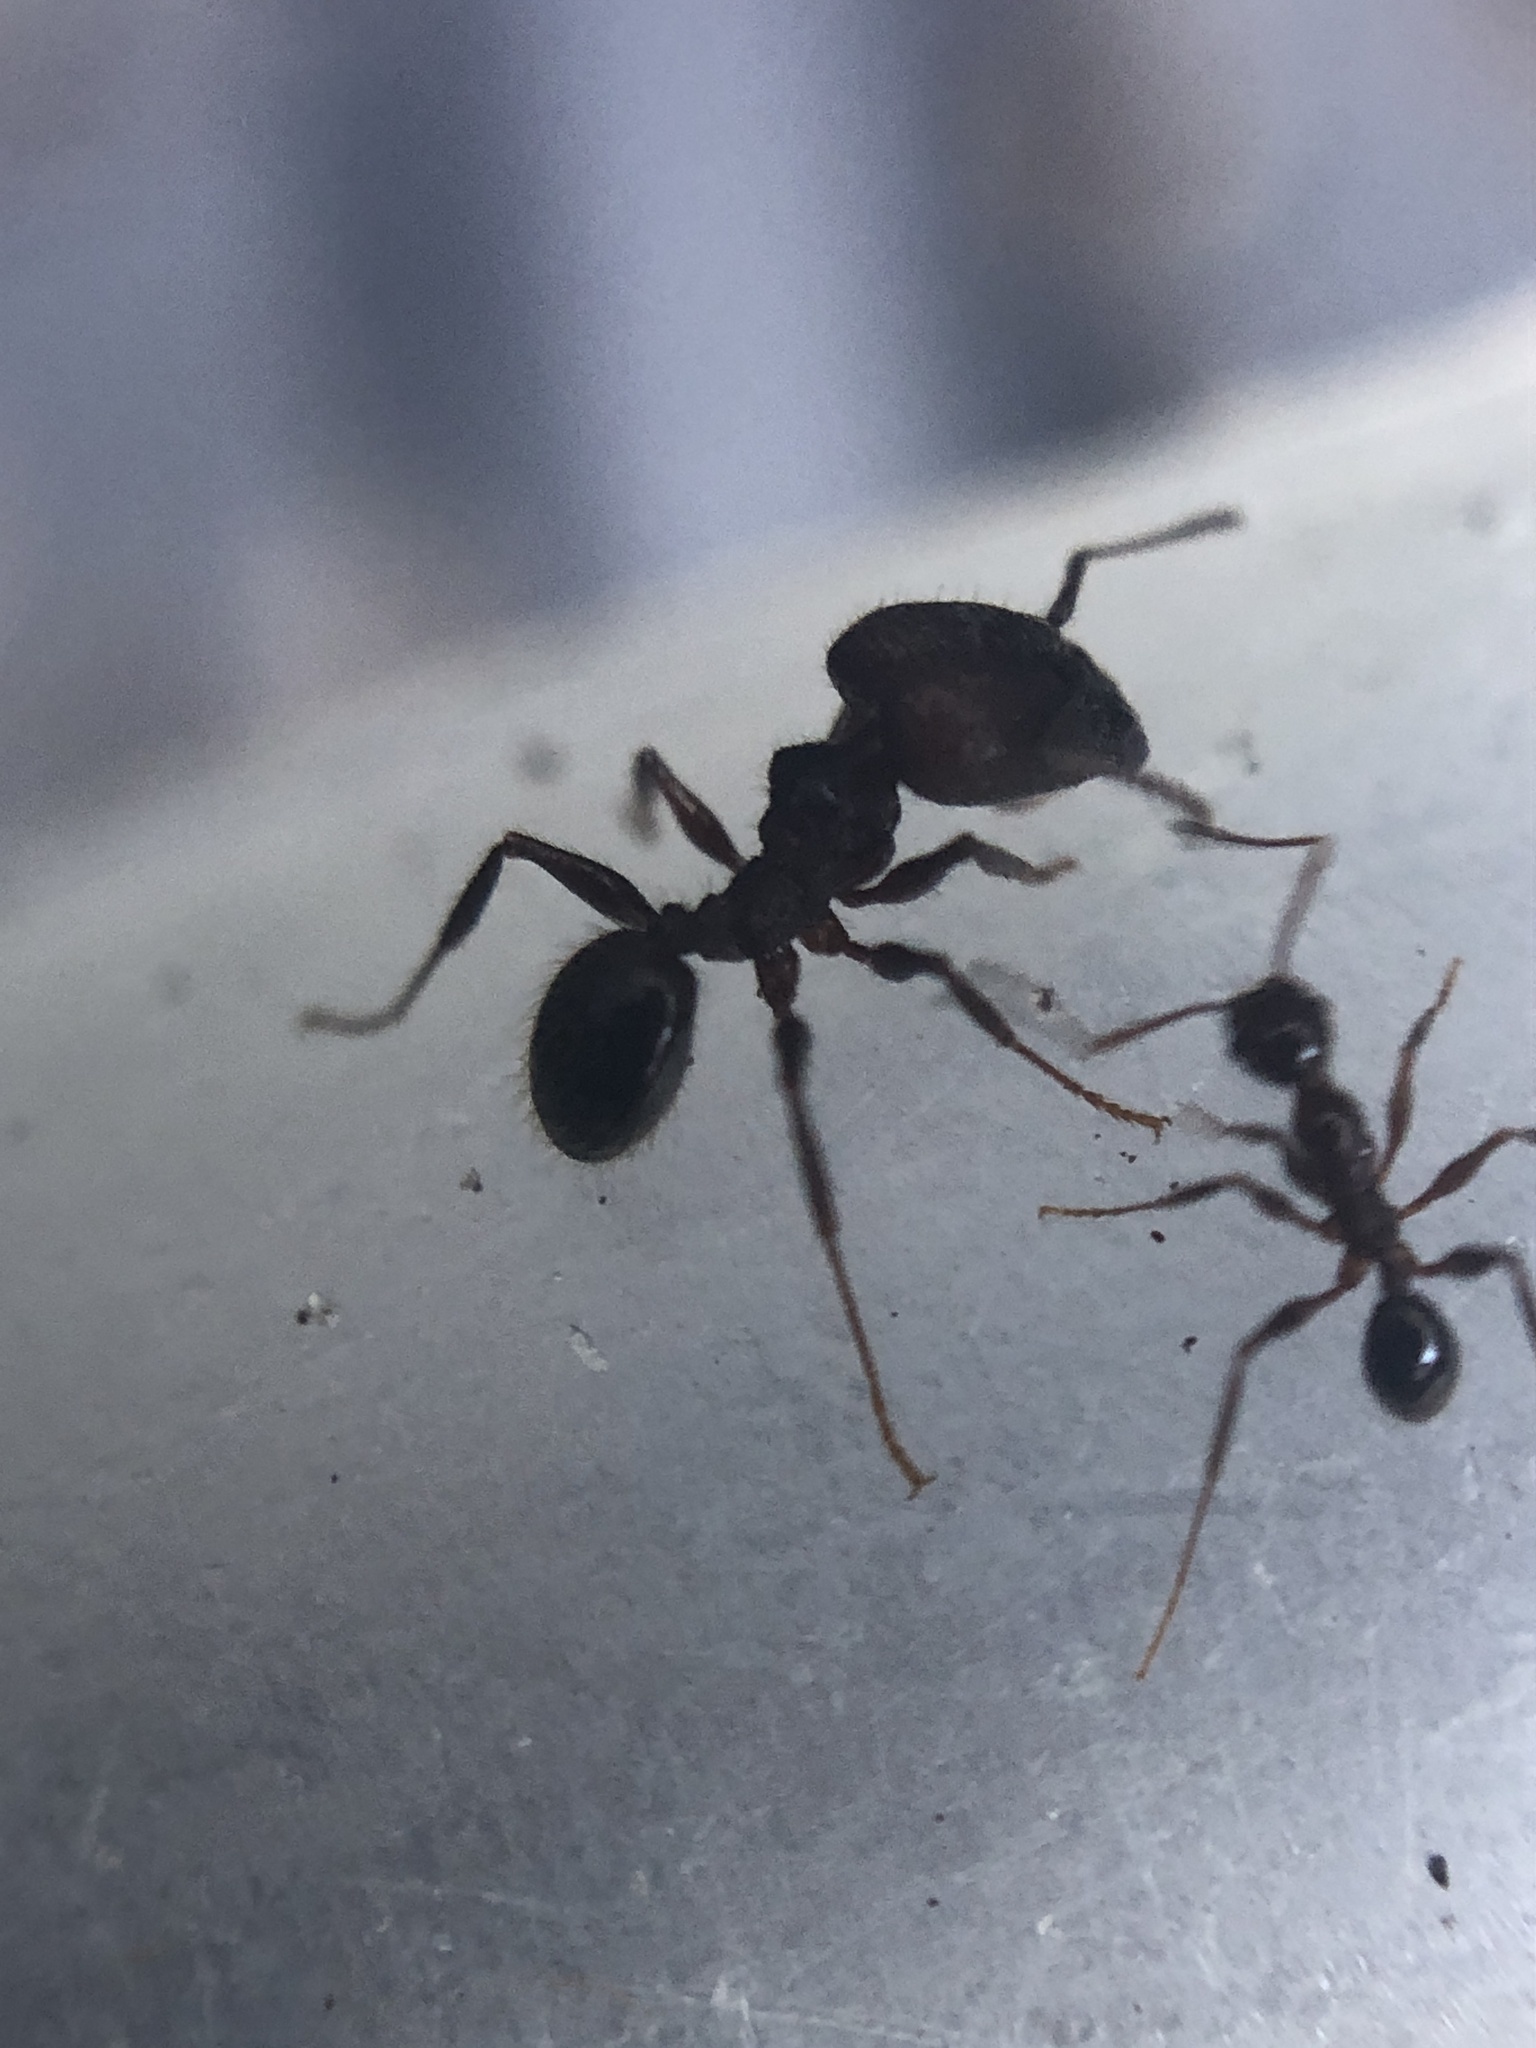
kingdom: Animalia
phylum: Arthropoda
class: Insecta
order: Hymenoptera
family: Formicidae
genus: Pheidole
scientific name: Pheidole obscurithorax
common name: Obscure big-headed ant
